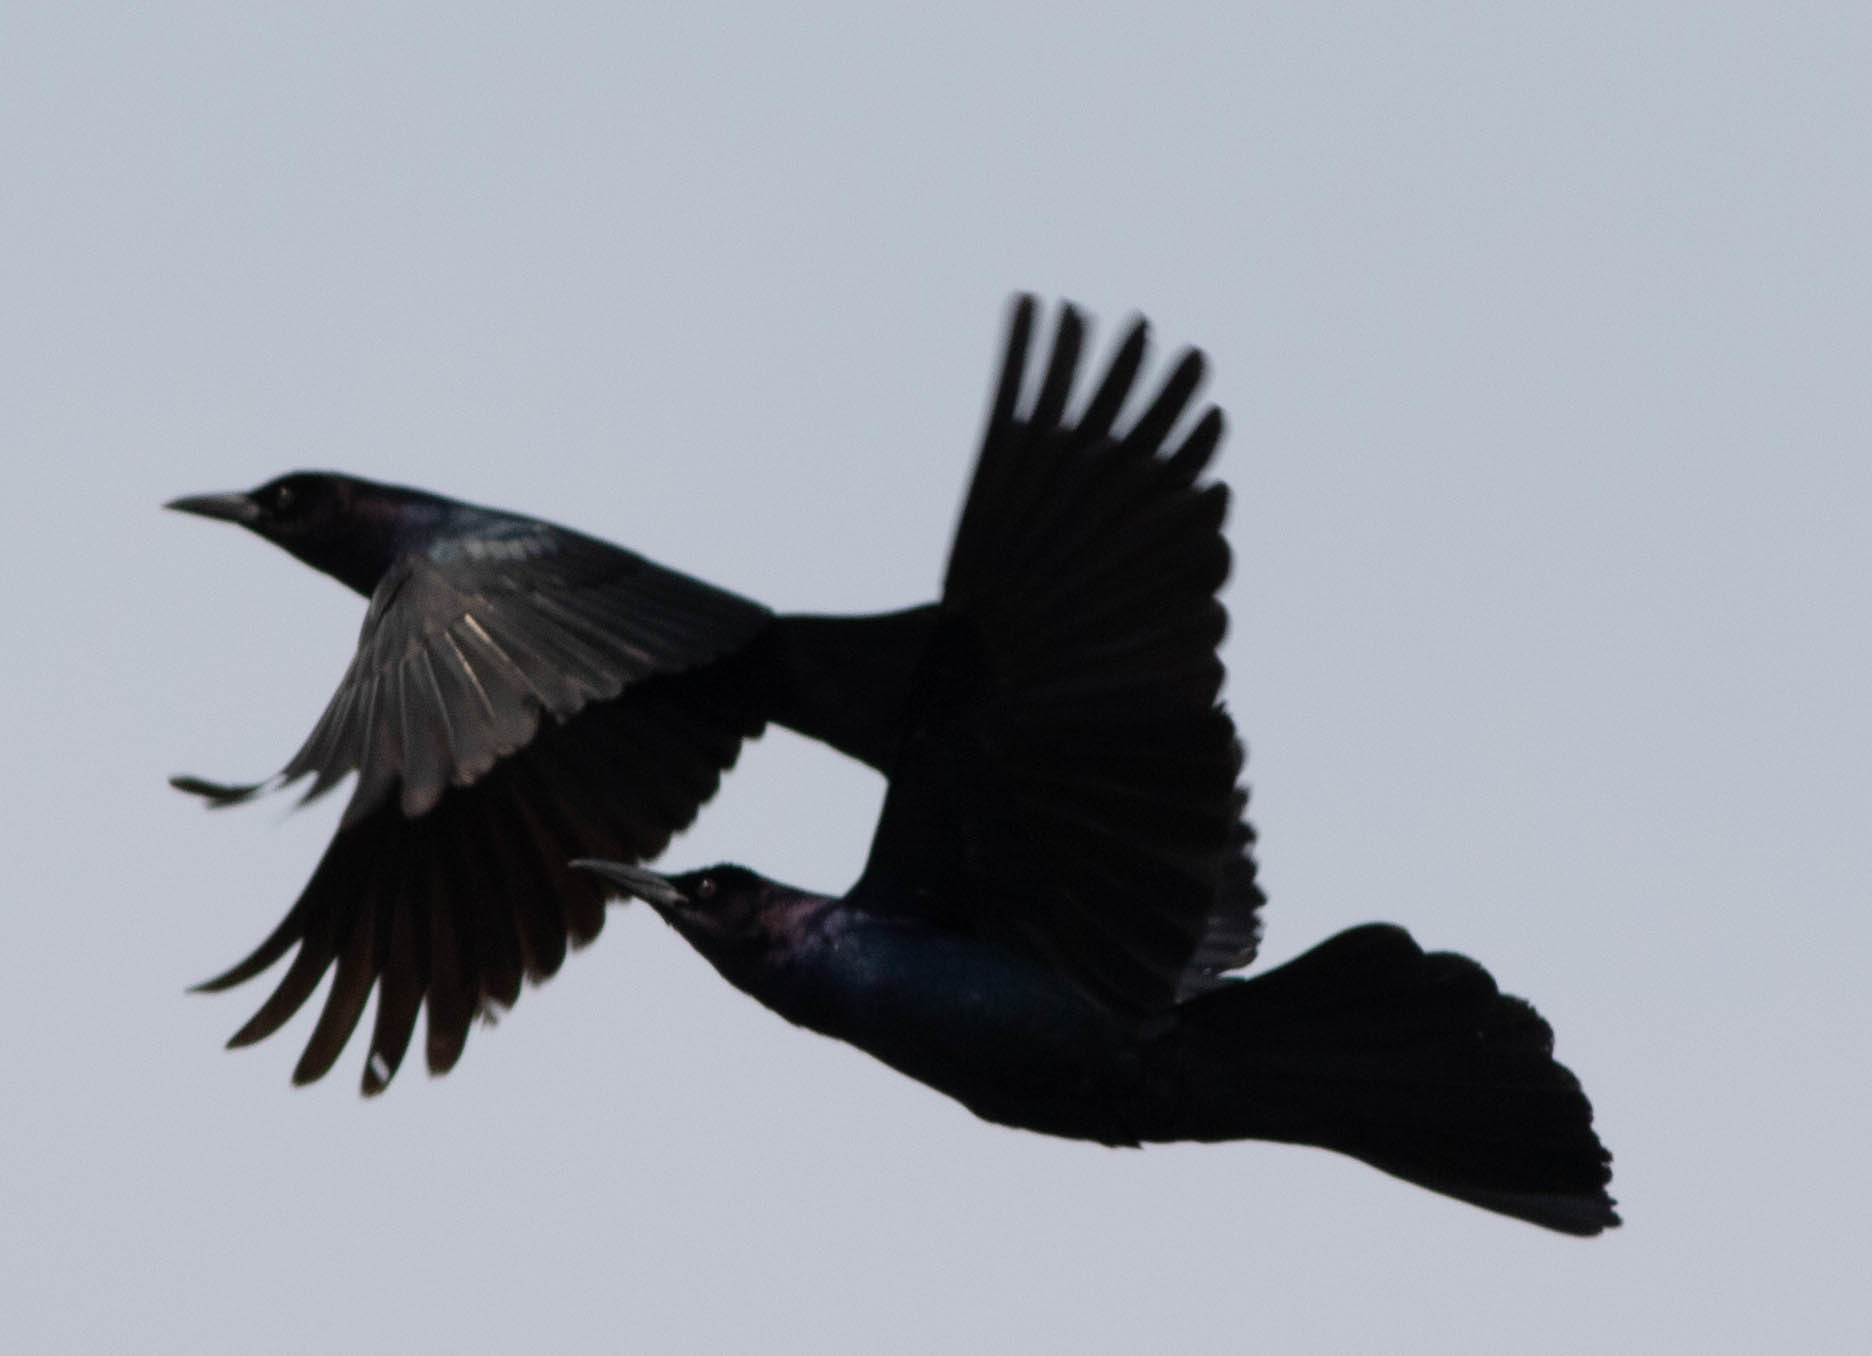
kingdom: Animalia
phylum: Chordata
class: Aves
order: Passeriformes
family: Icteridae
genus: Quiscalus
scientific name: Quiscalus major
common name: Boat-tailed grackle
